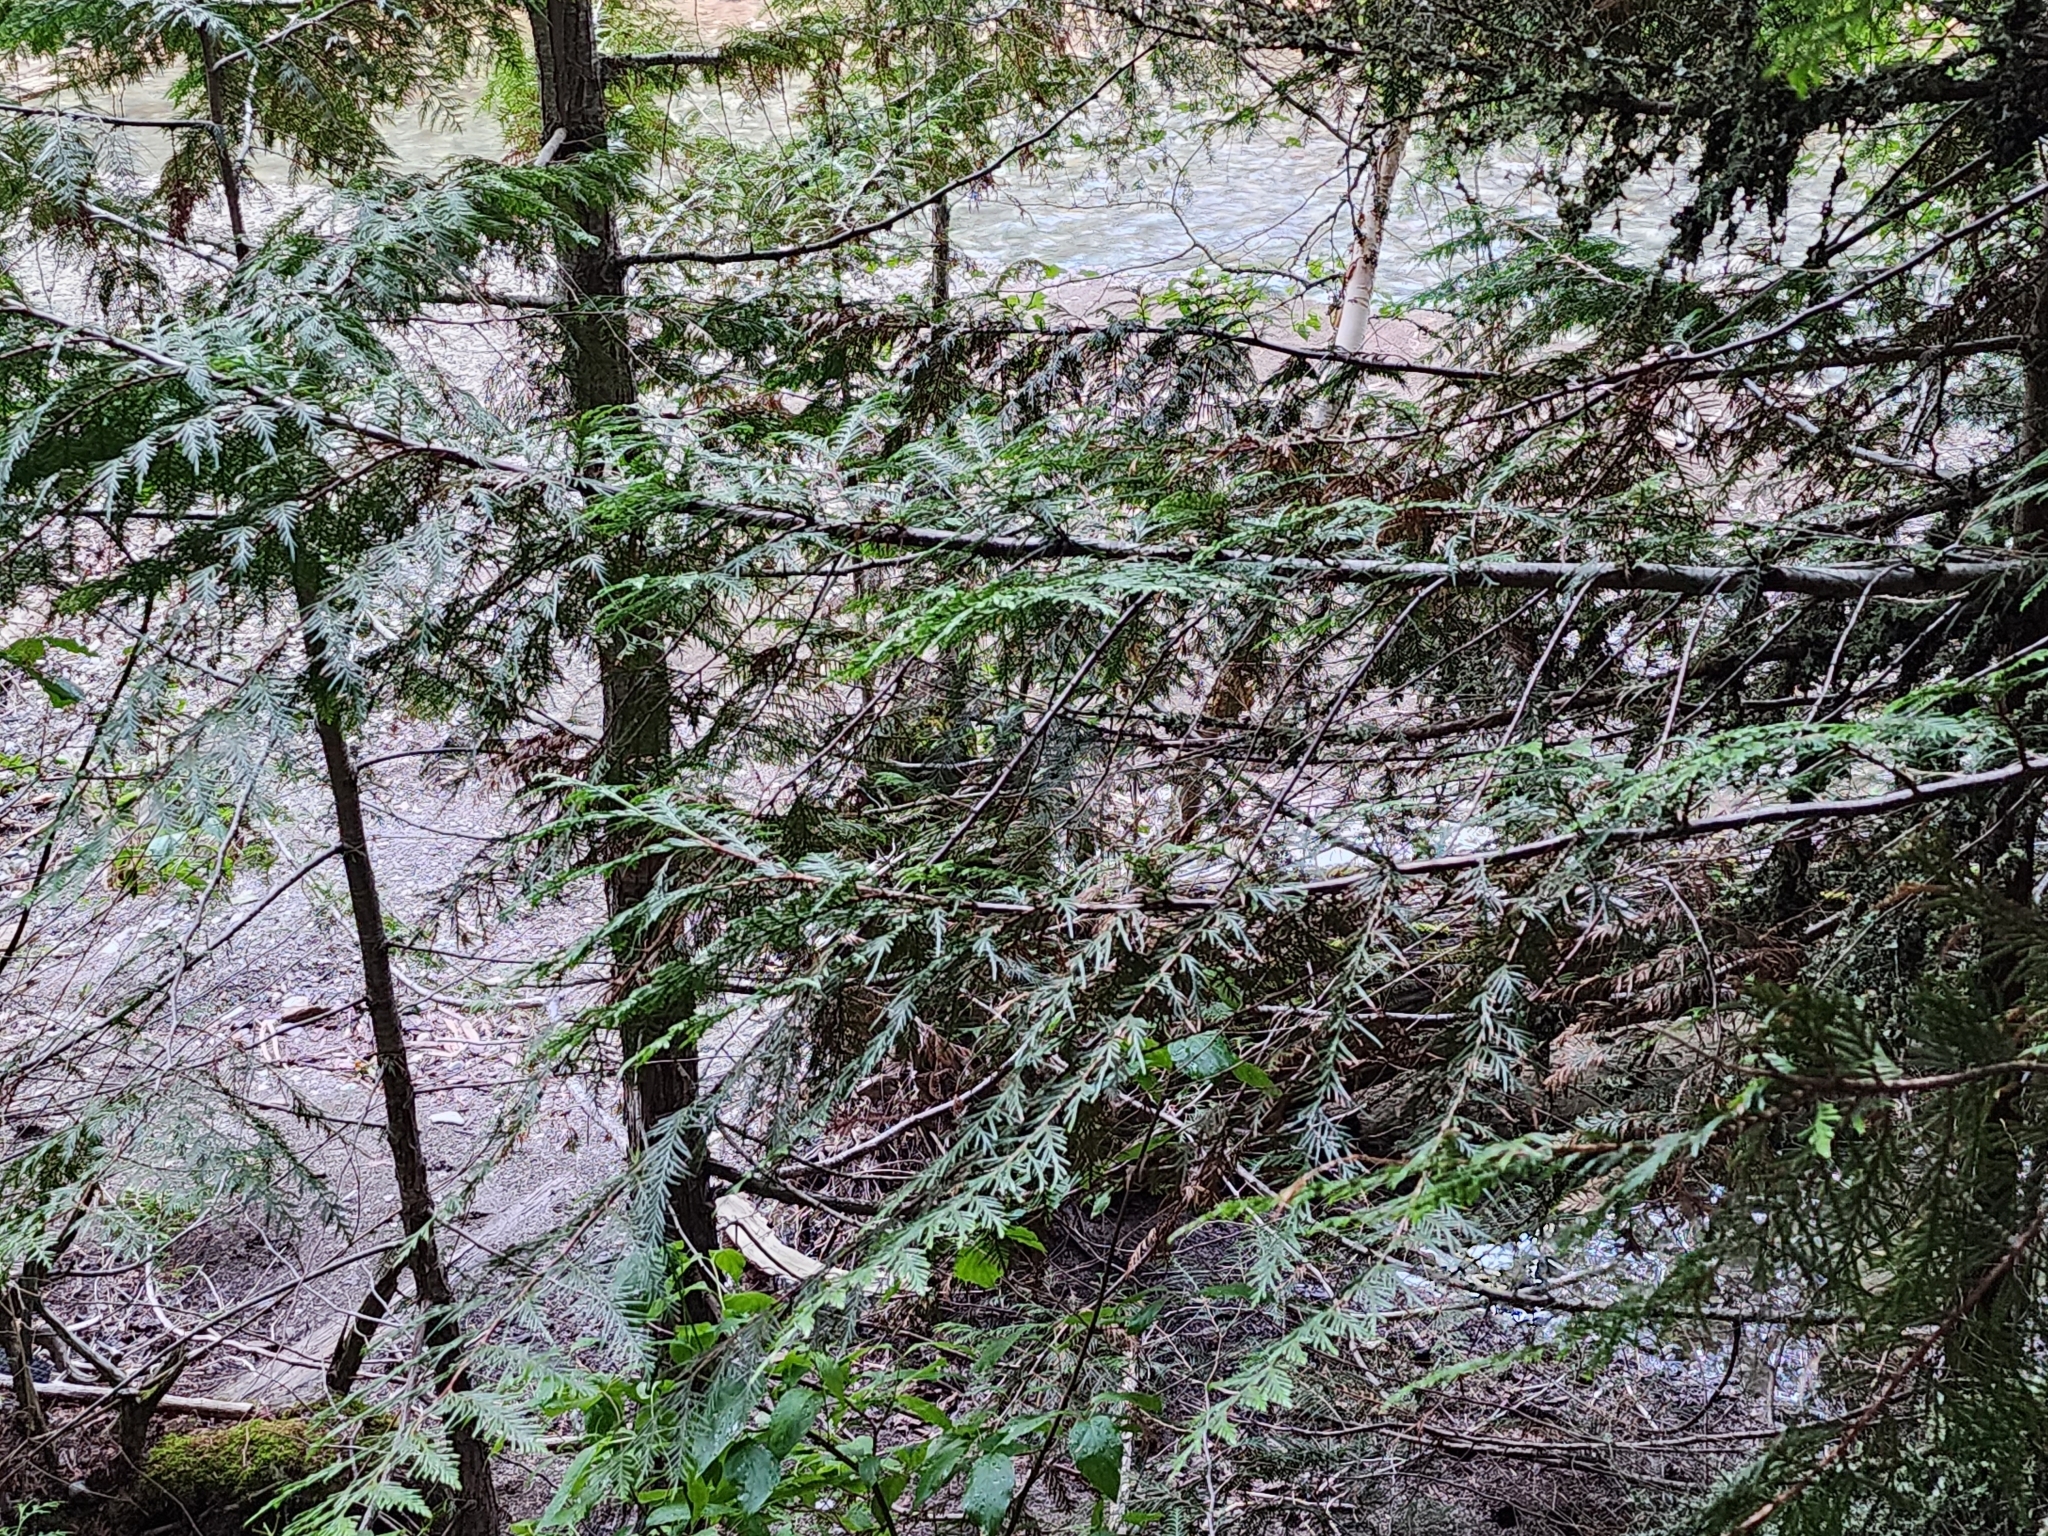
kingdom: Plantae
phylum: Tracheophyta
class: Pinopsida
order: Pinales
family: Cupressaceae
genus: Thuja
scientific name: Thuja plicata
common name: Western red-cedar
